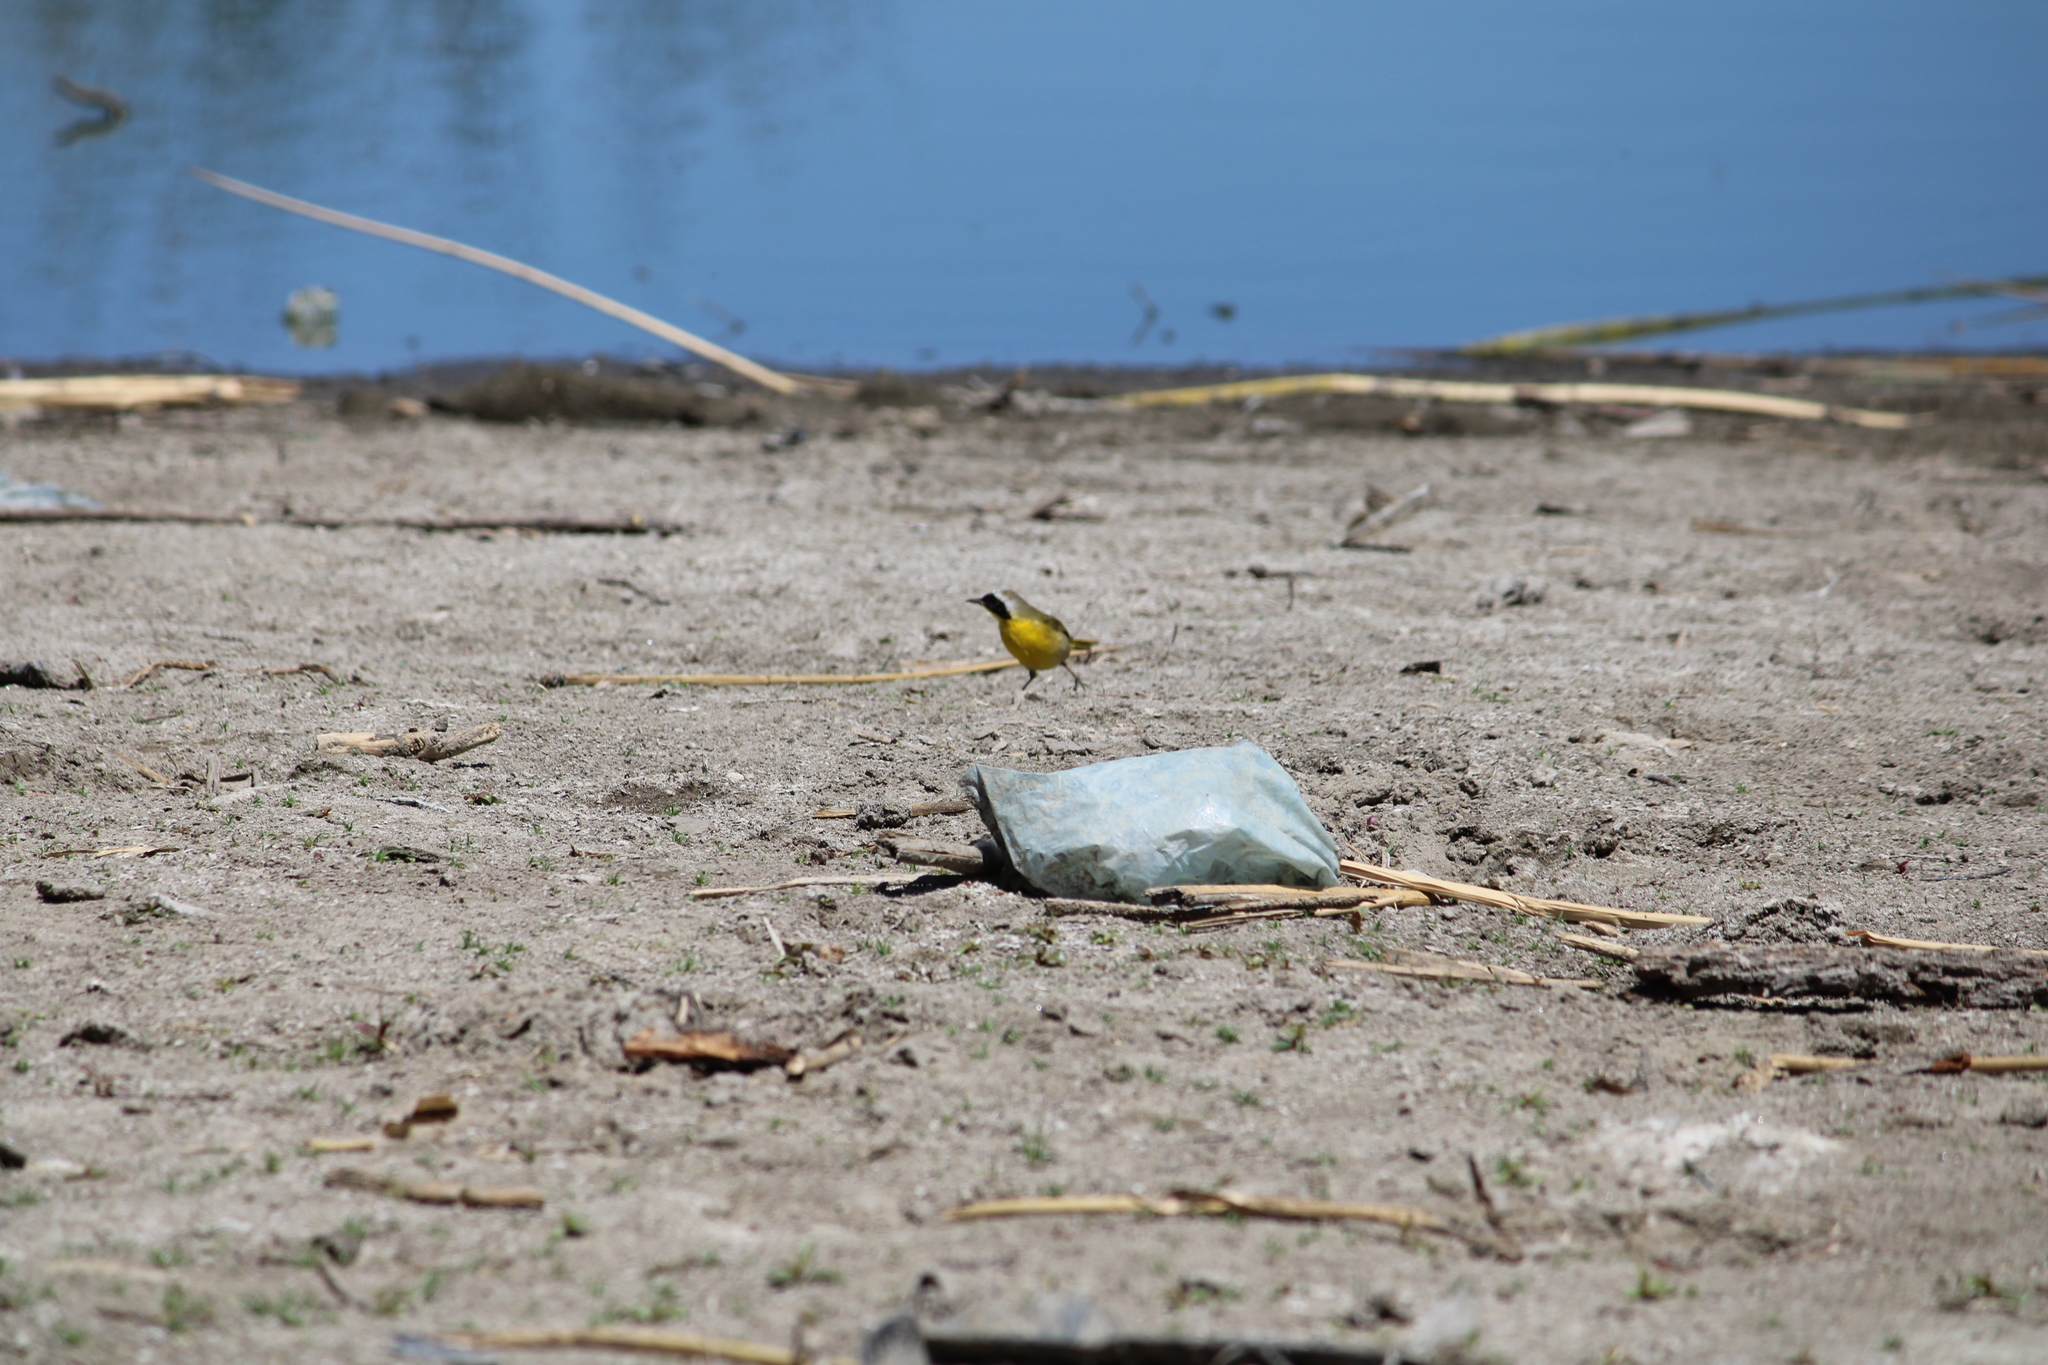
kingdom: Animalia
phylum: Chordata
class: Aves
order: Passeriformes
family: Parulidae
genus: Geothlypis
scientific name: Geothlypis trichas
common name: Common yellowthroat
